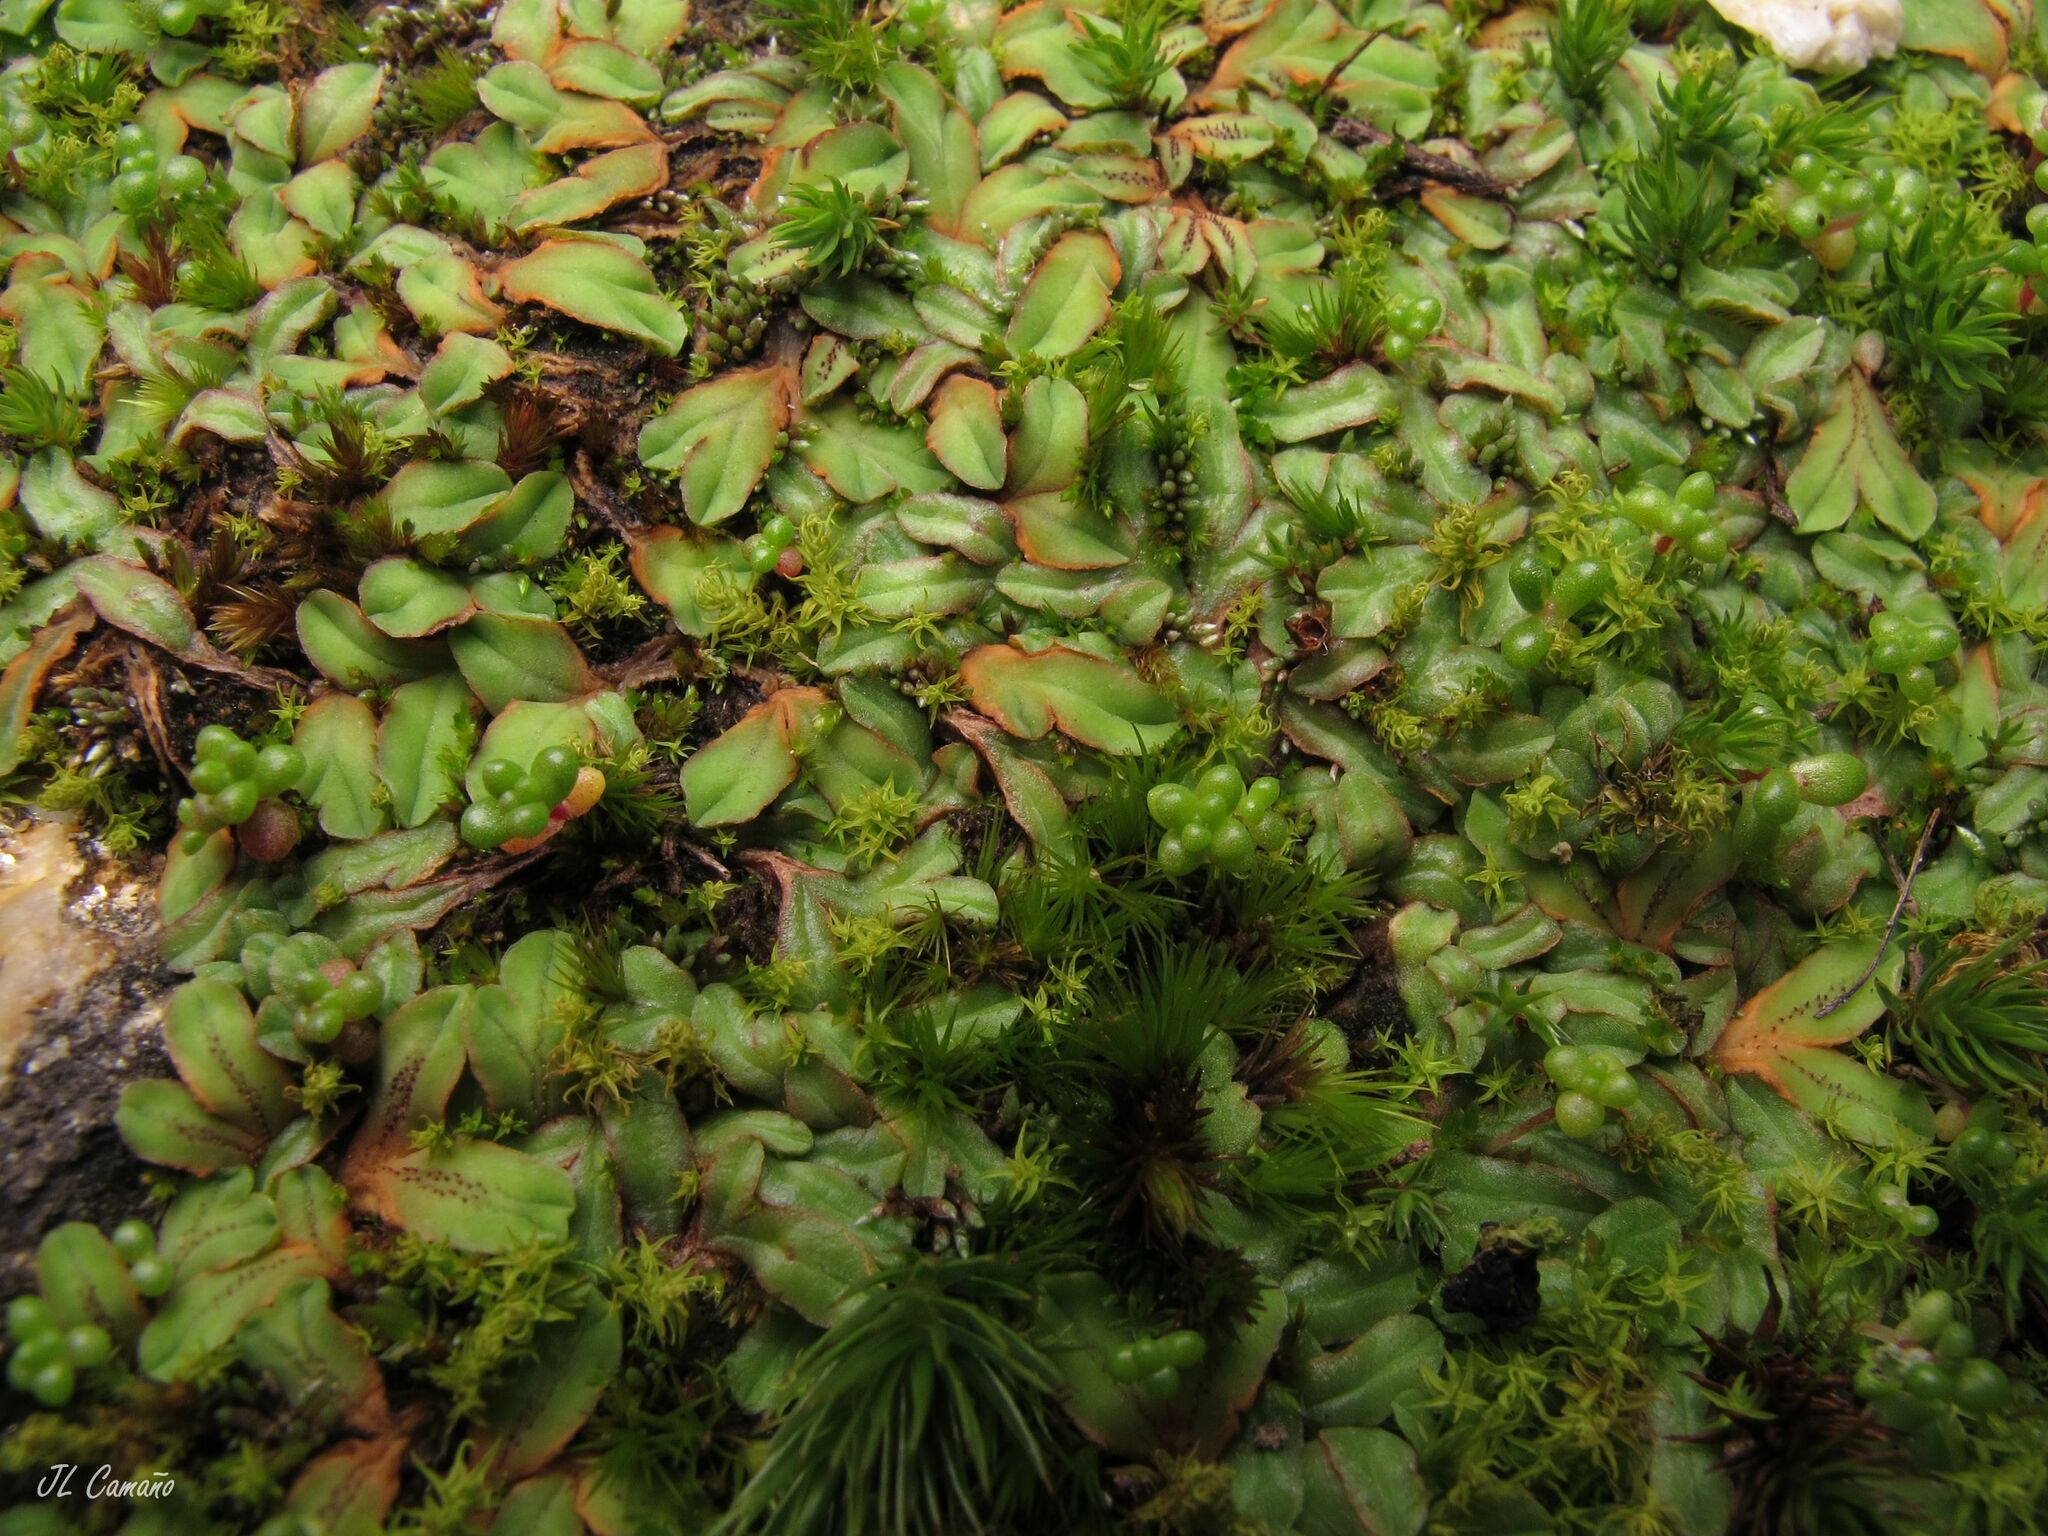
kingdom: Plantae
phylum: Marchantiophyta
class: Marchantiopsida
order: Marchantiales
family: Ricciaceae
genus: Riccia
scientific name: Riccia gougetiana
